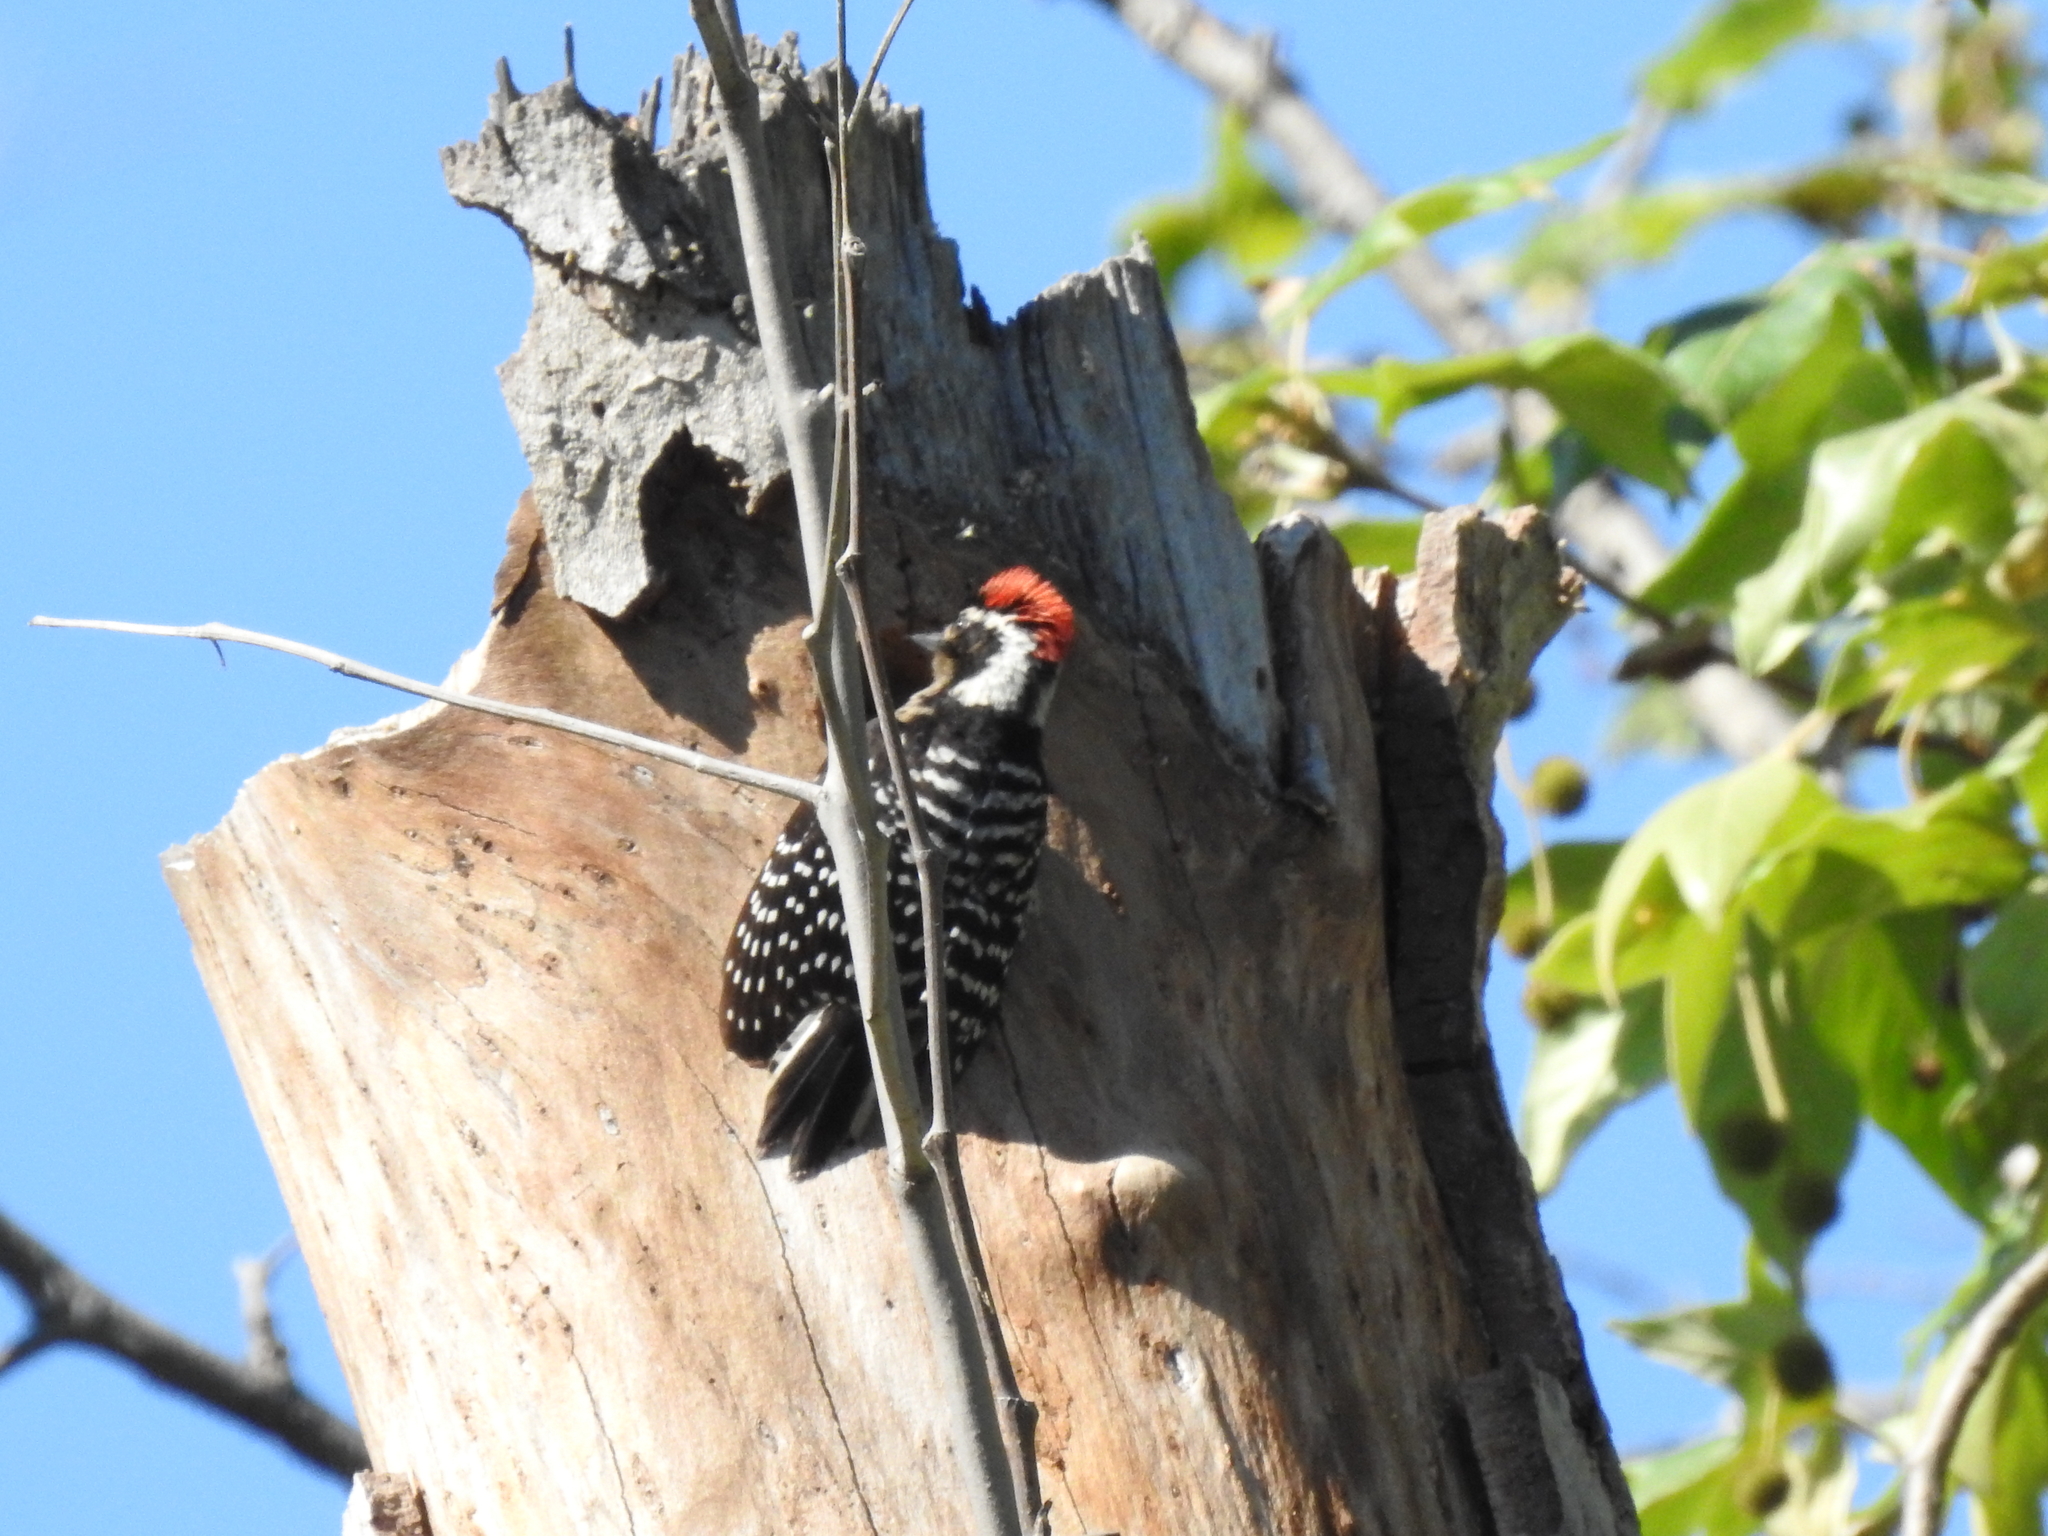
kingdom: Animalia
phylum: Chordata
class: Aves
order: Piciformes
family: Picidae
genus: Dryobates
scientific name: Dryobates nuttallii
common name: Nuttall's woodpecker
